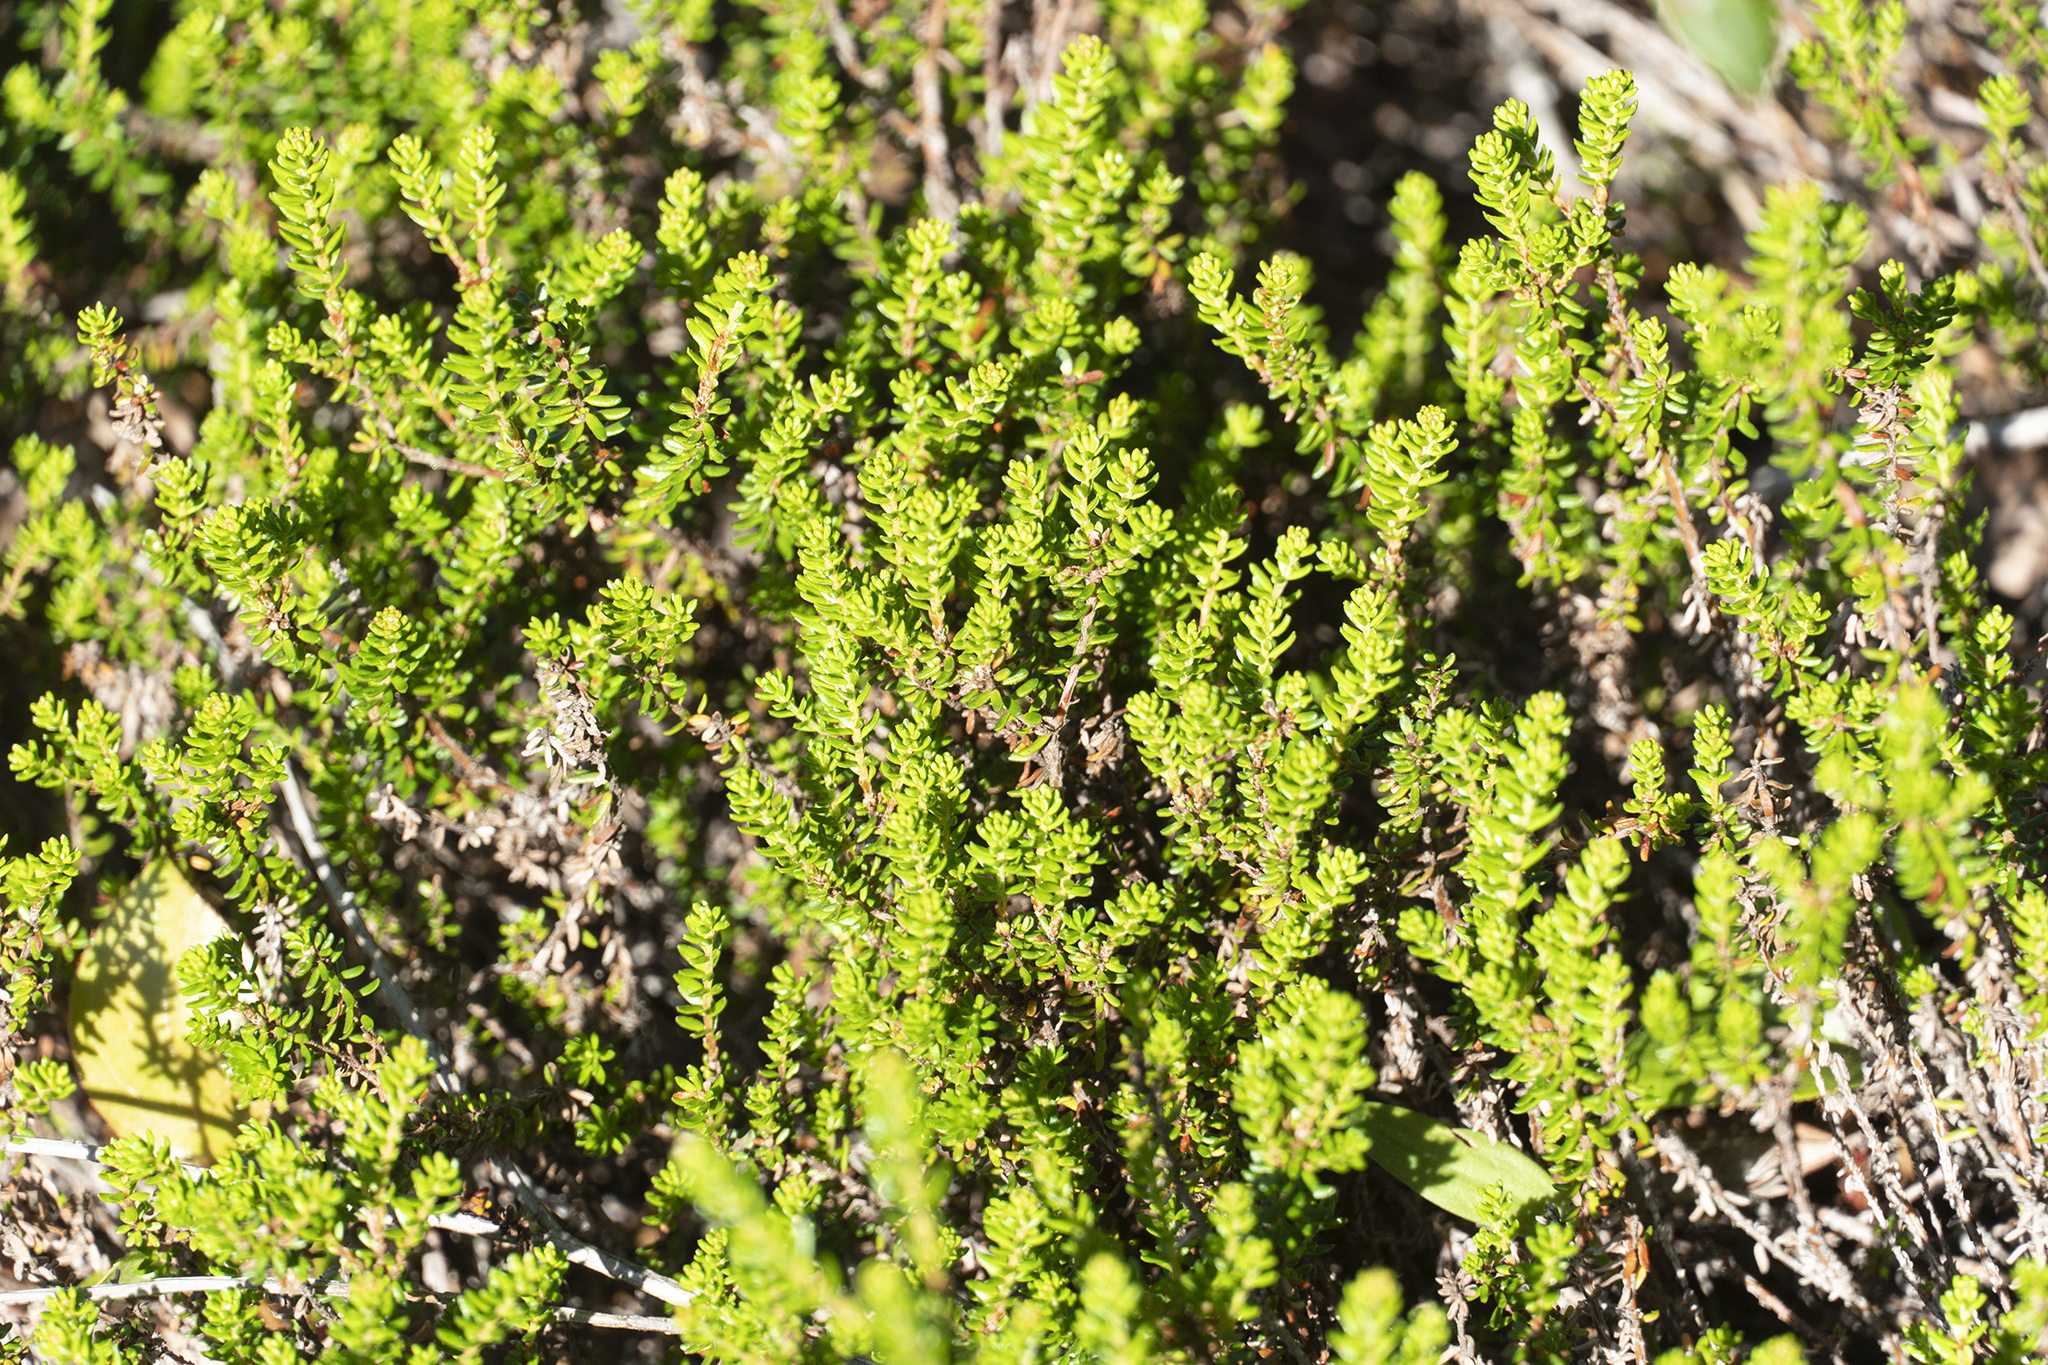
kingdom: Plantae
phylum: Tracheophyta
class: Magnoliopsida
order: Ericales
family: Ericaceae
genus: Empetrum
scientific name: Empetrum nigrum
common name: Black crowberry
